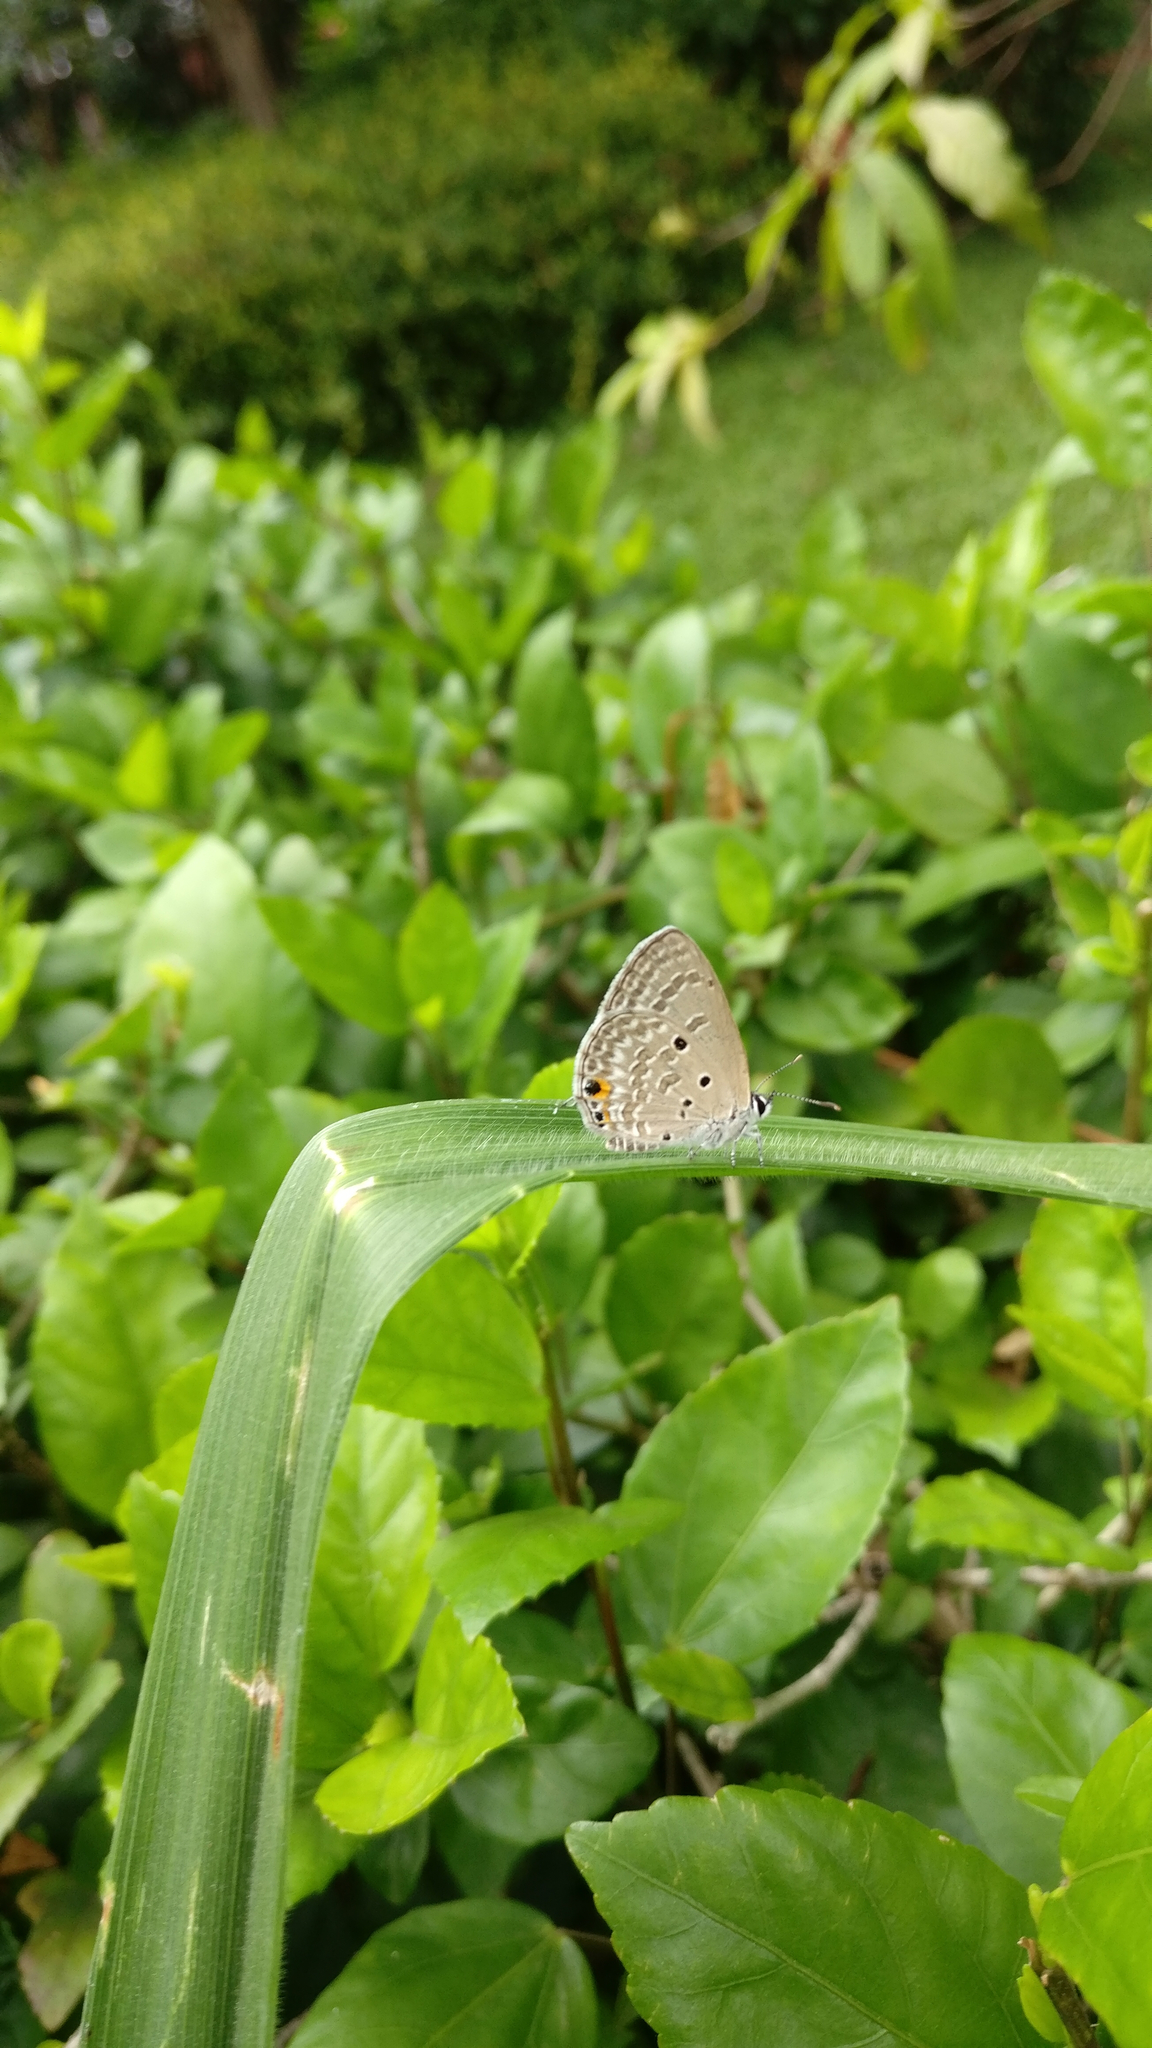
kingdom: Animalia
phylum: Arthropoda
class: Insecta
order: Lepidoptera
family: Lycaenidae
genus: Luthrodes
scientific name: Luthrodes pandava
